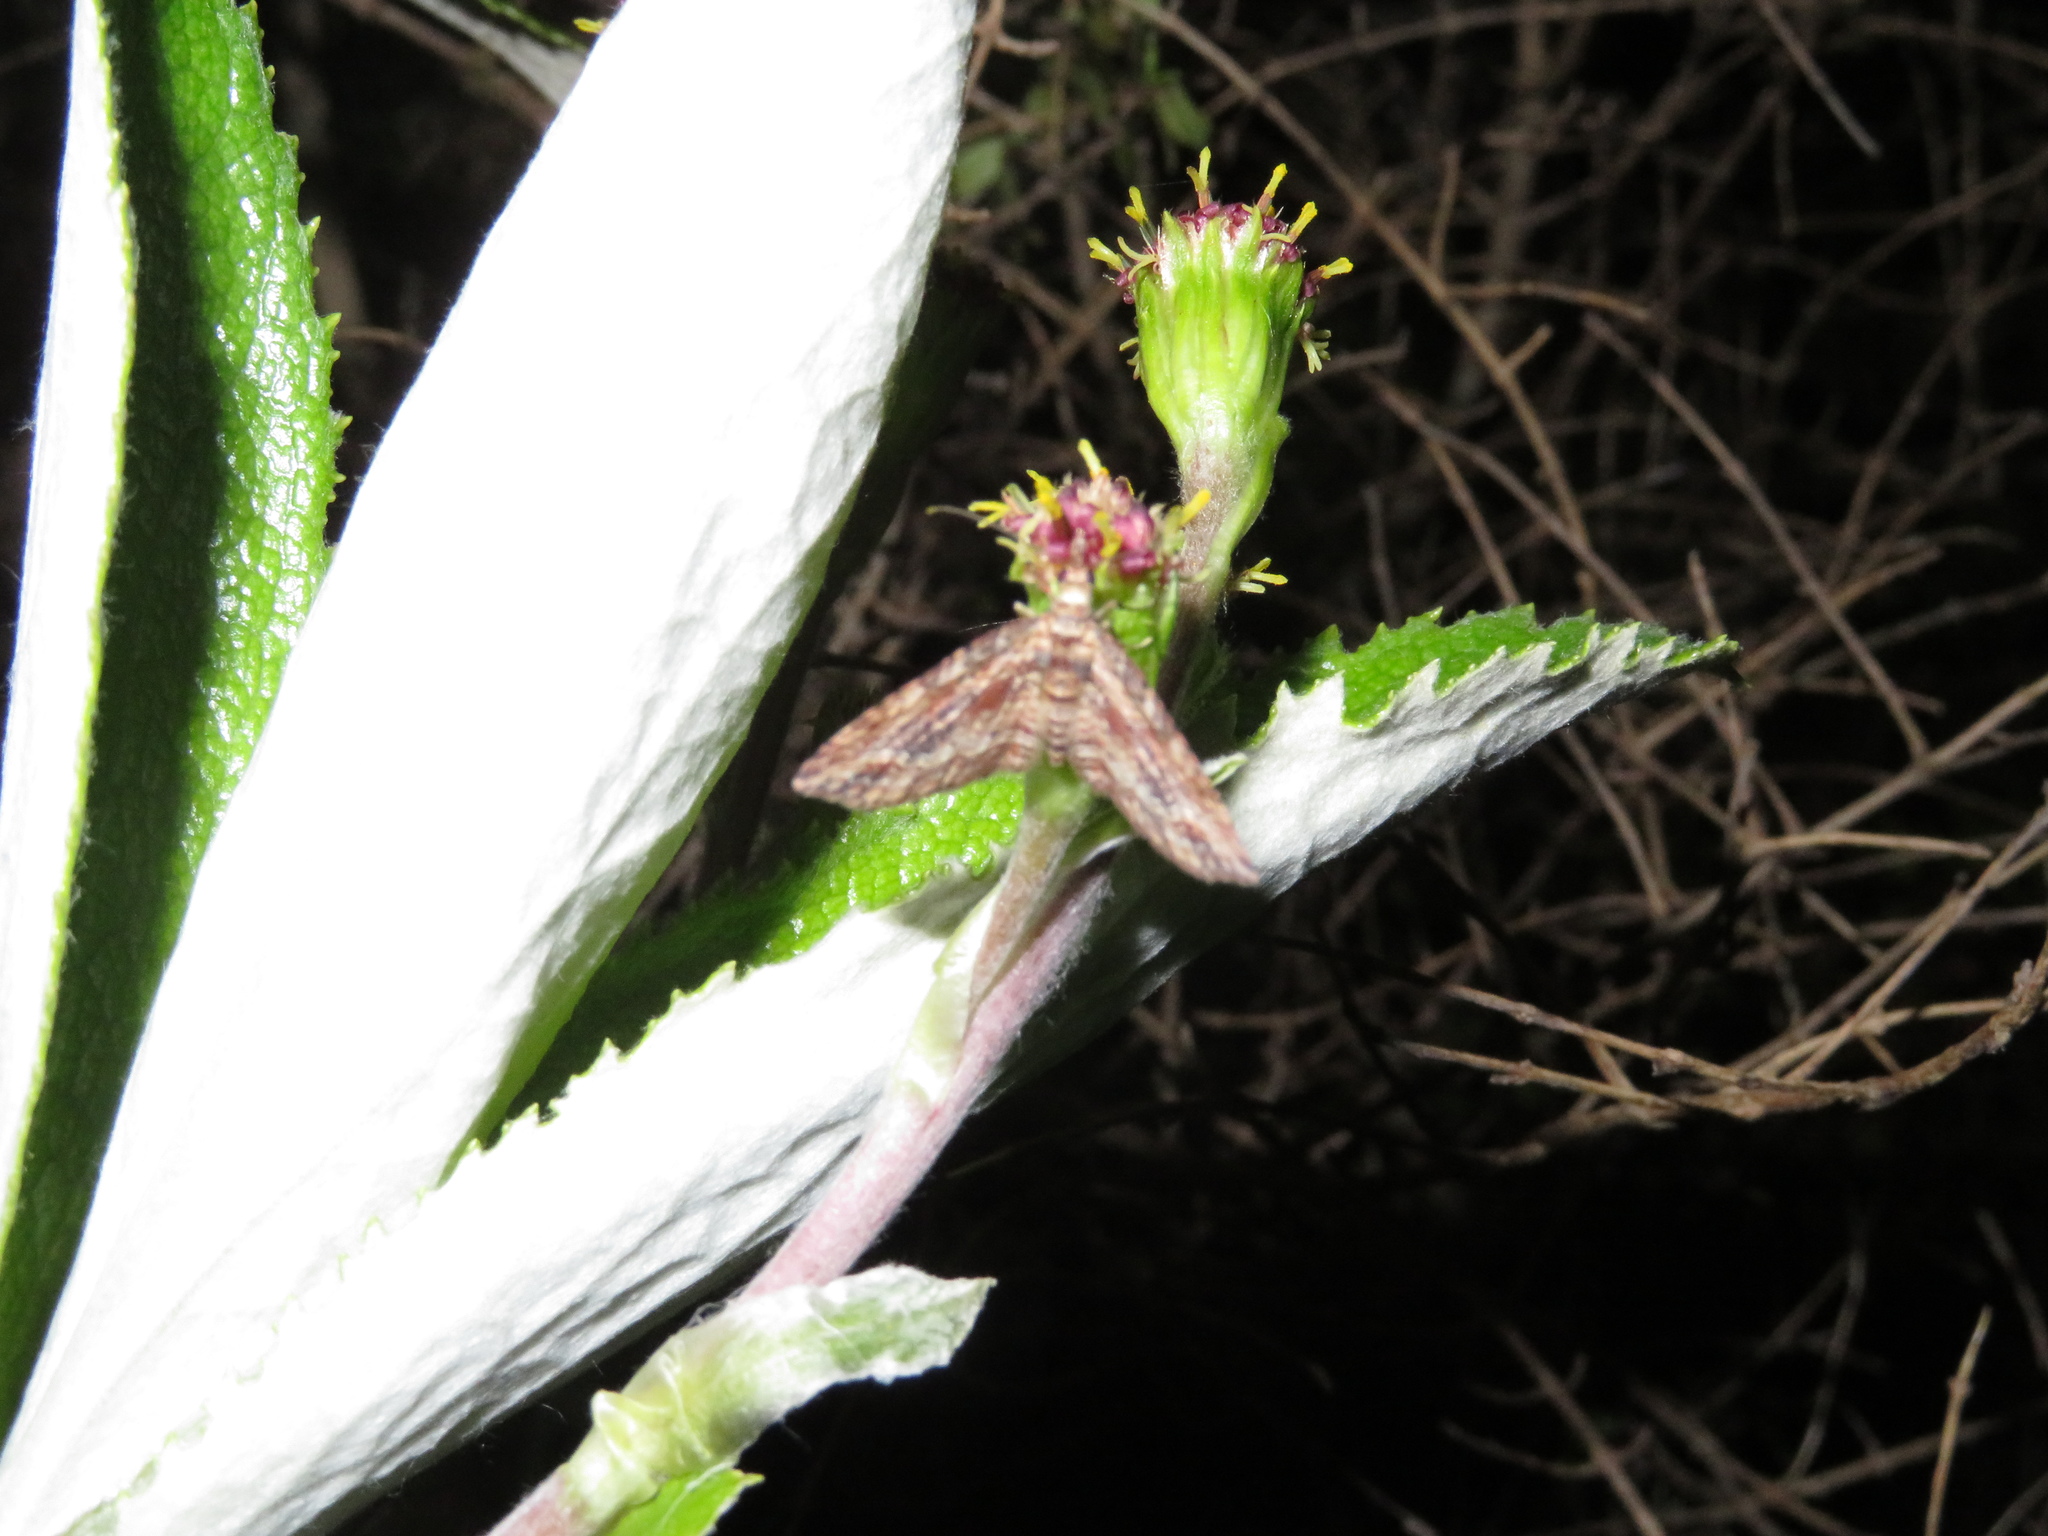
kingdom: Animalia
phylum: Arthropoda
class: Insecta
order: Lepidoptera
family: Geometridae
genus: Chloroclystis
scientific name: Chloroclystis filata
